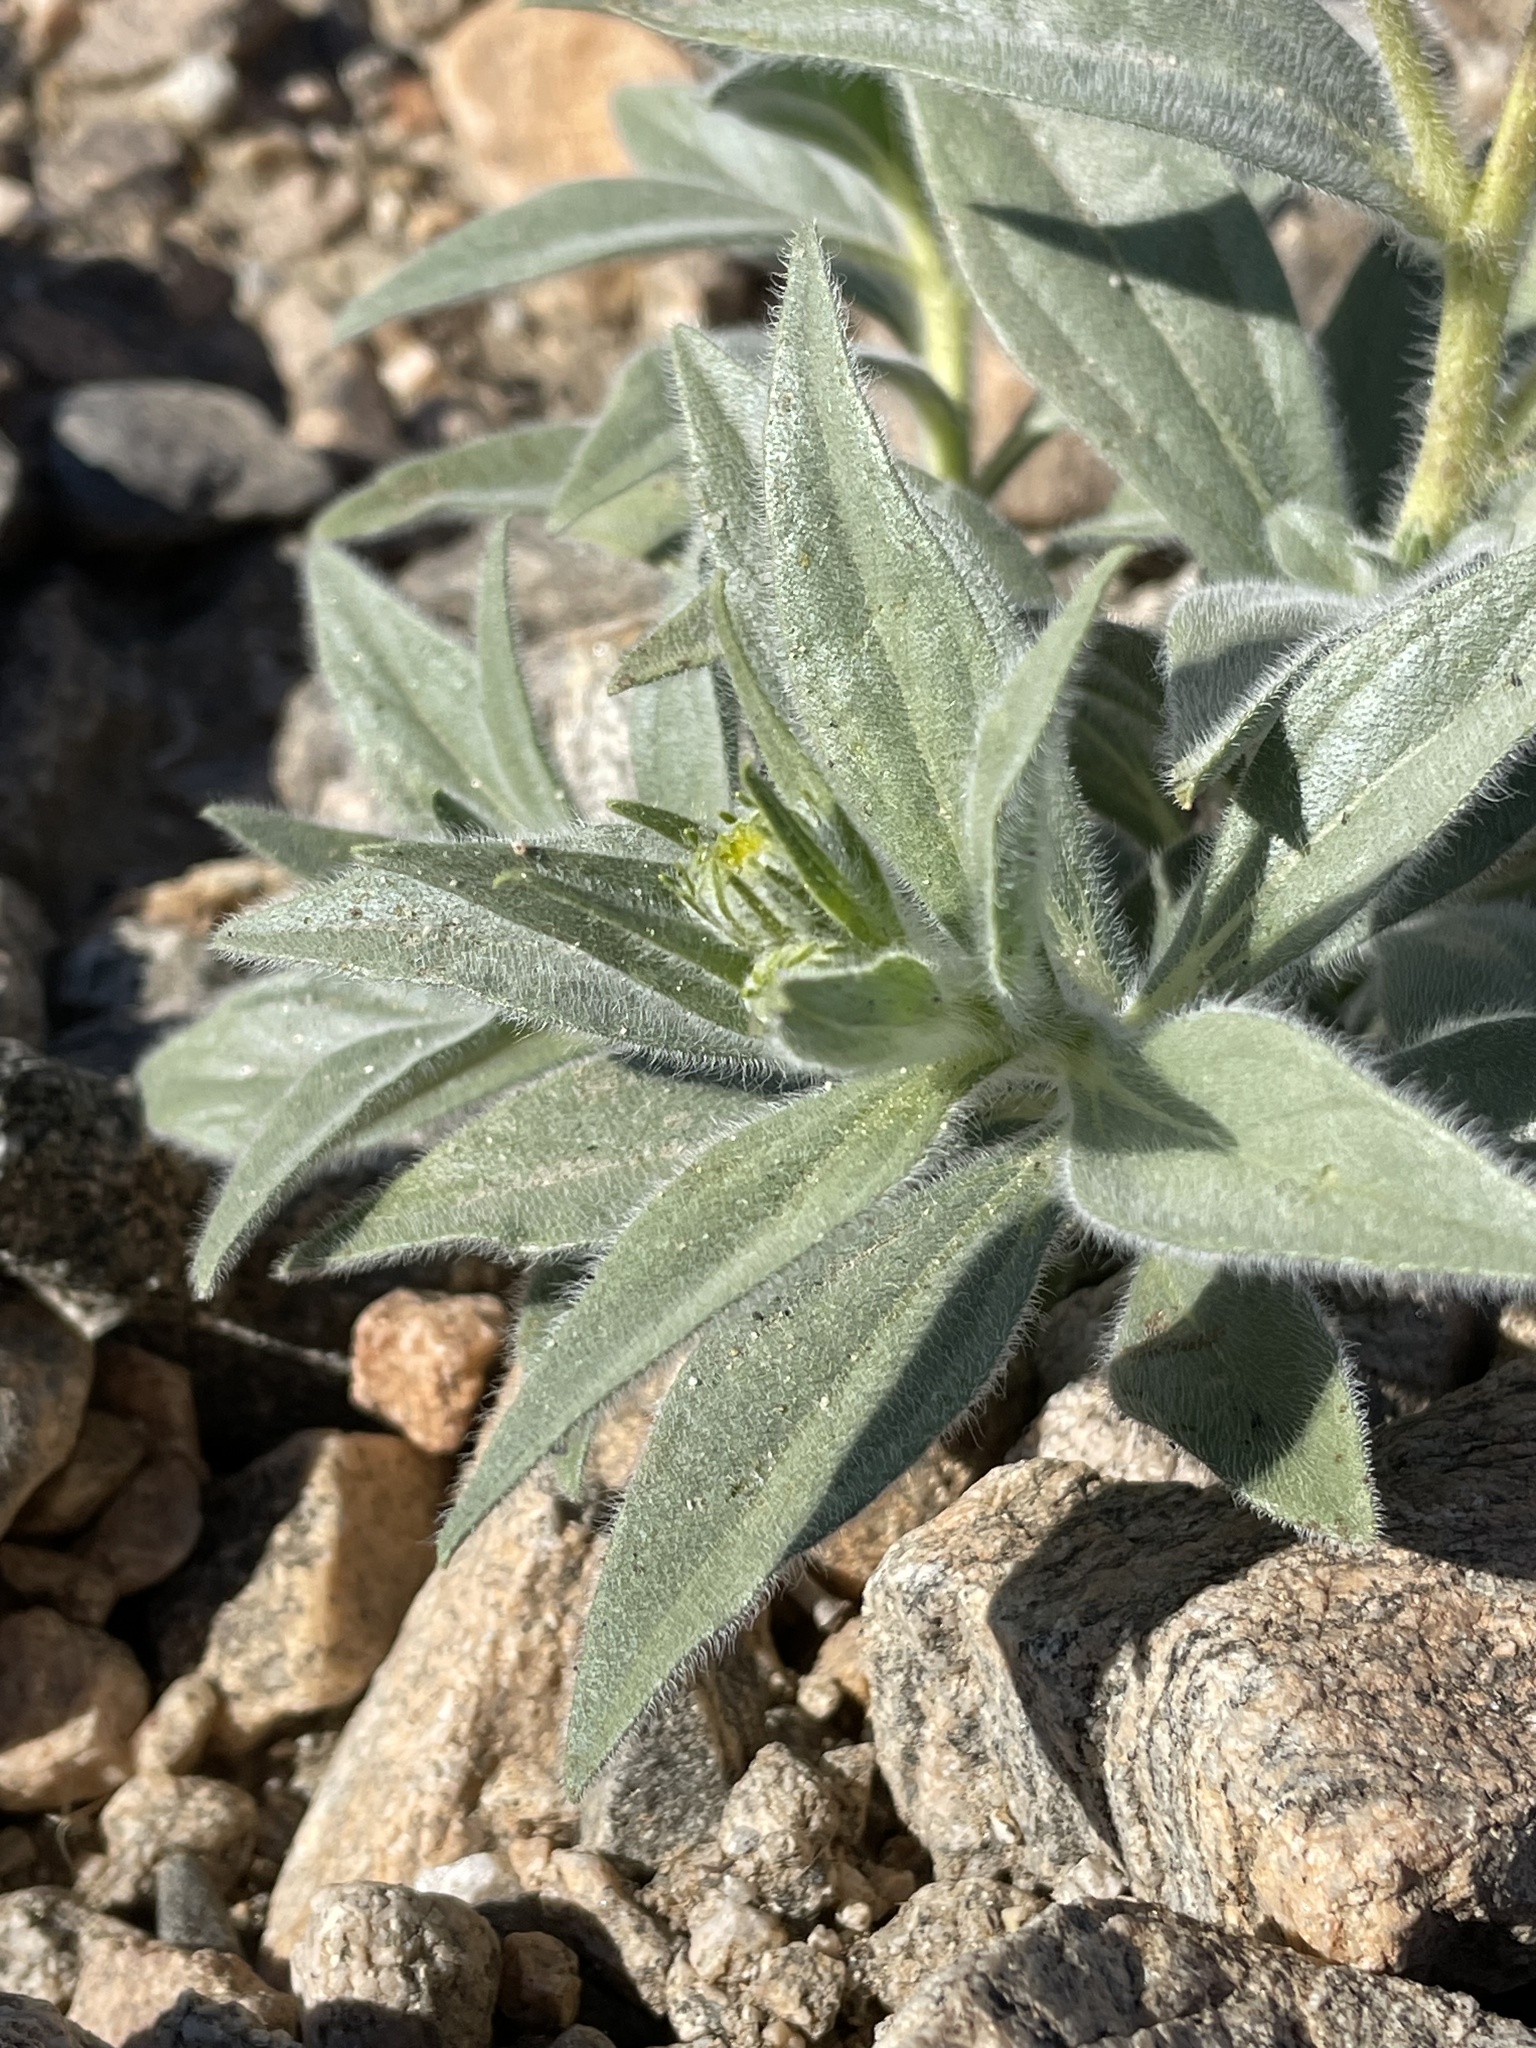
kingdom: Plantae
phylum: Tracheophyta
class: Magnoliopsida
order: Asterales
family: Asteraceae
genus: Geraea
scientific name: Geraea canescens
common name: Desert-gold
